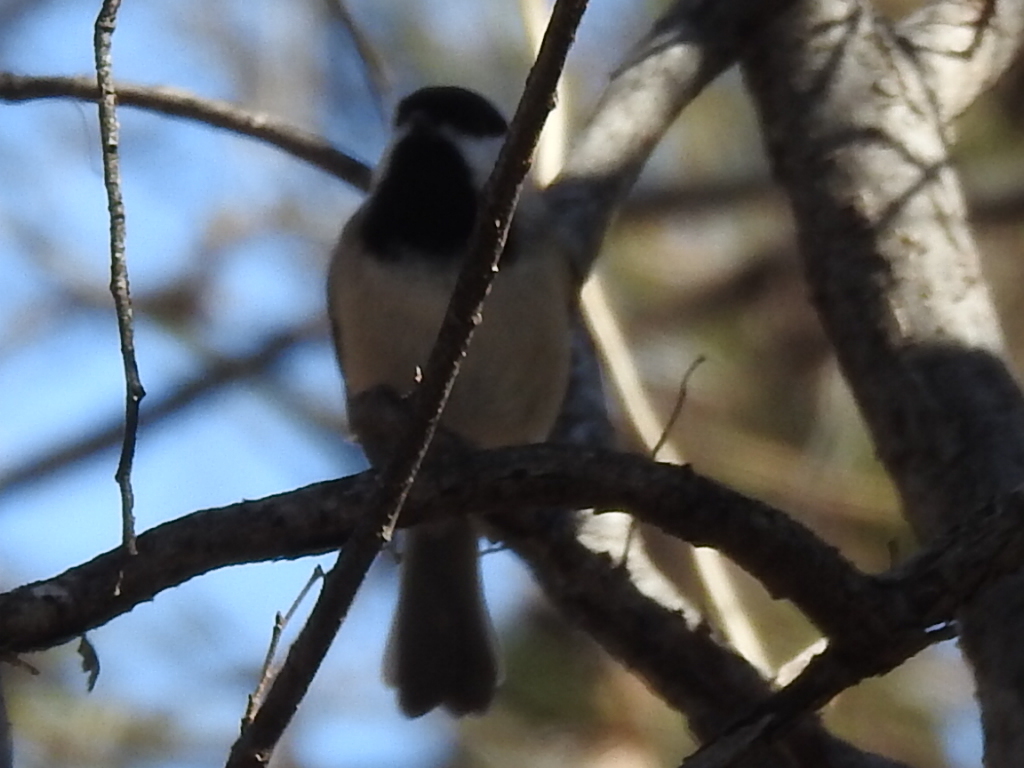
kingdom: Animalia
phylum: Chordata
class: Aves
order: Passeriformes
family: Paridae
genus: Poecile
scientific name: Poecile carolinensis
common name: Carolina chickadee
